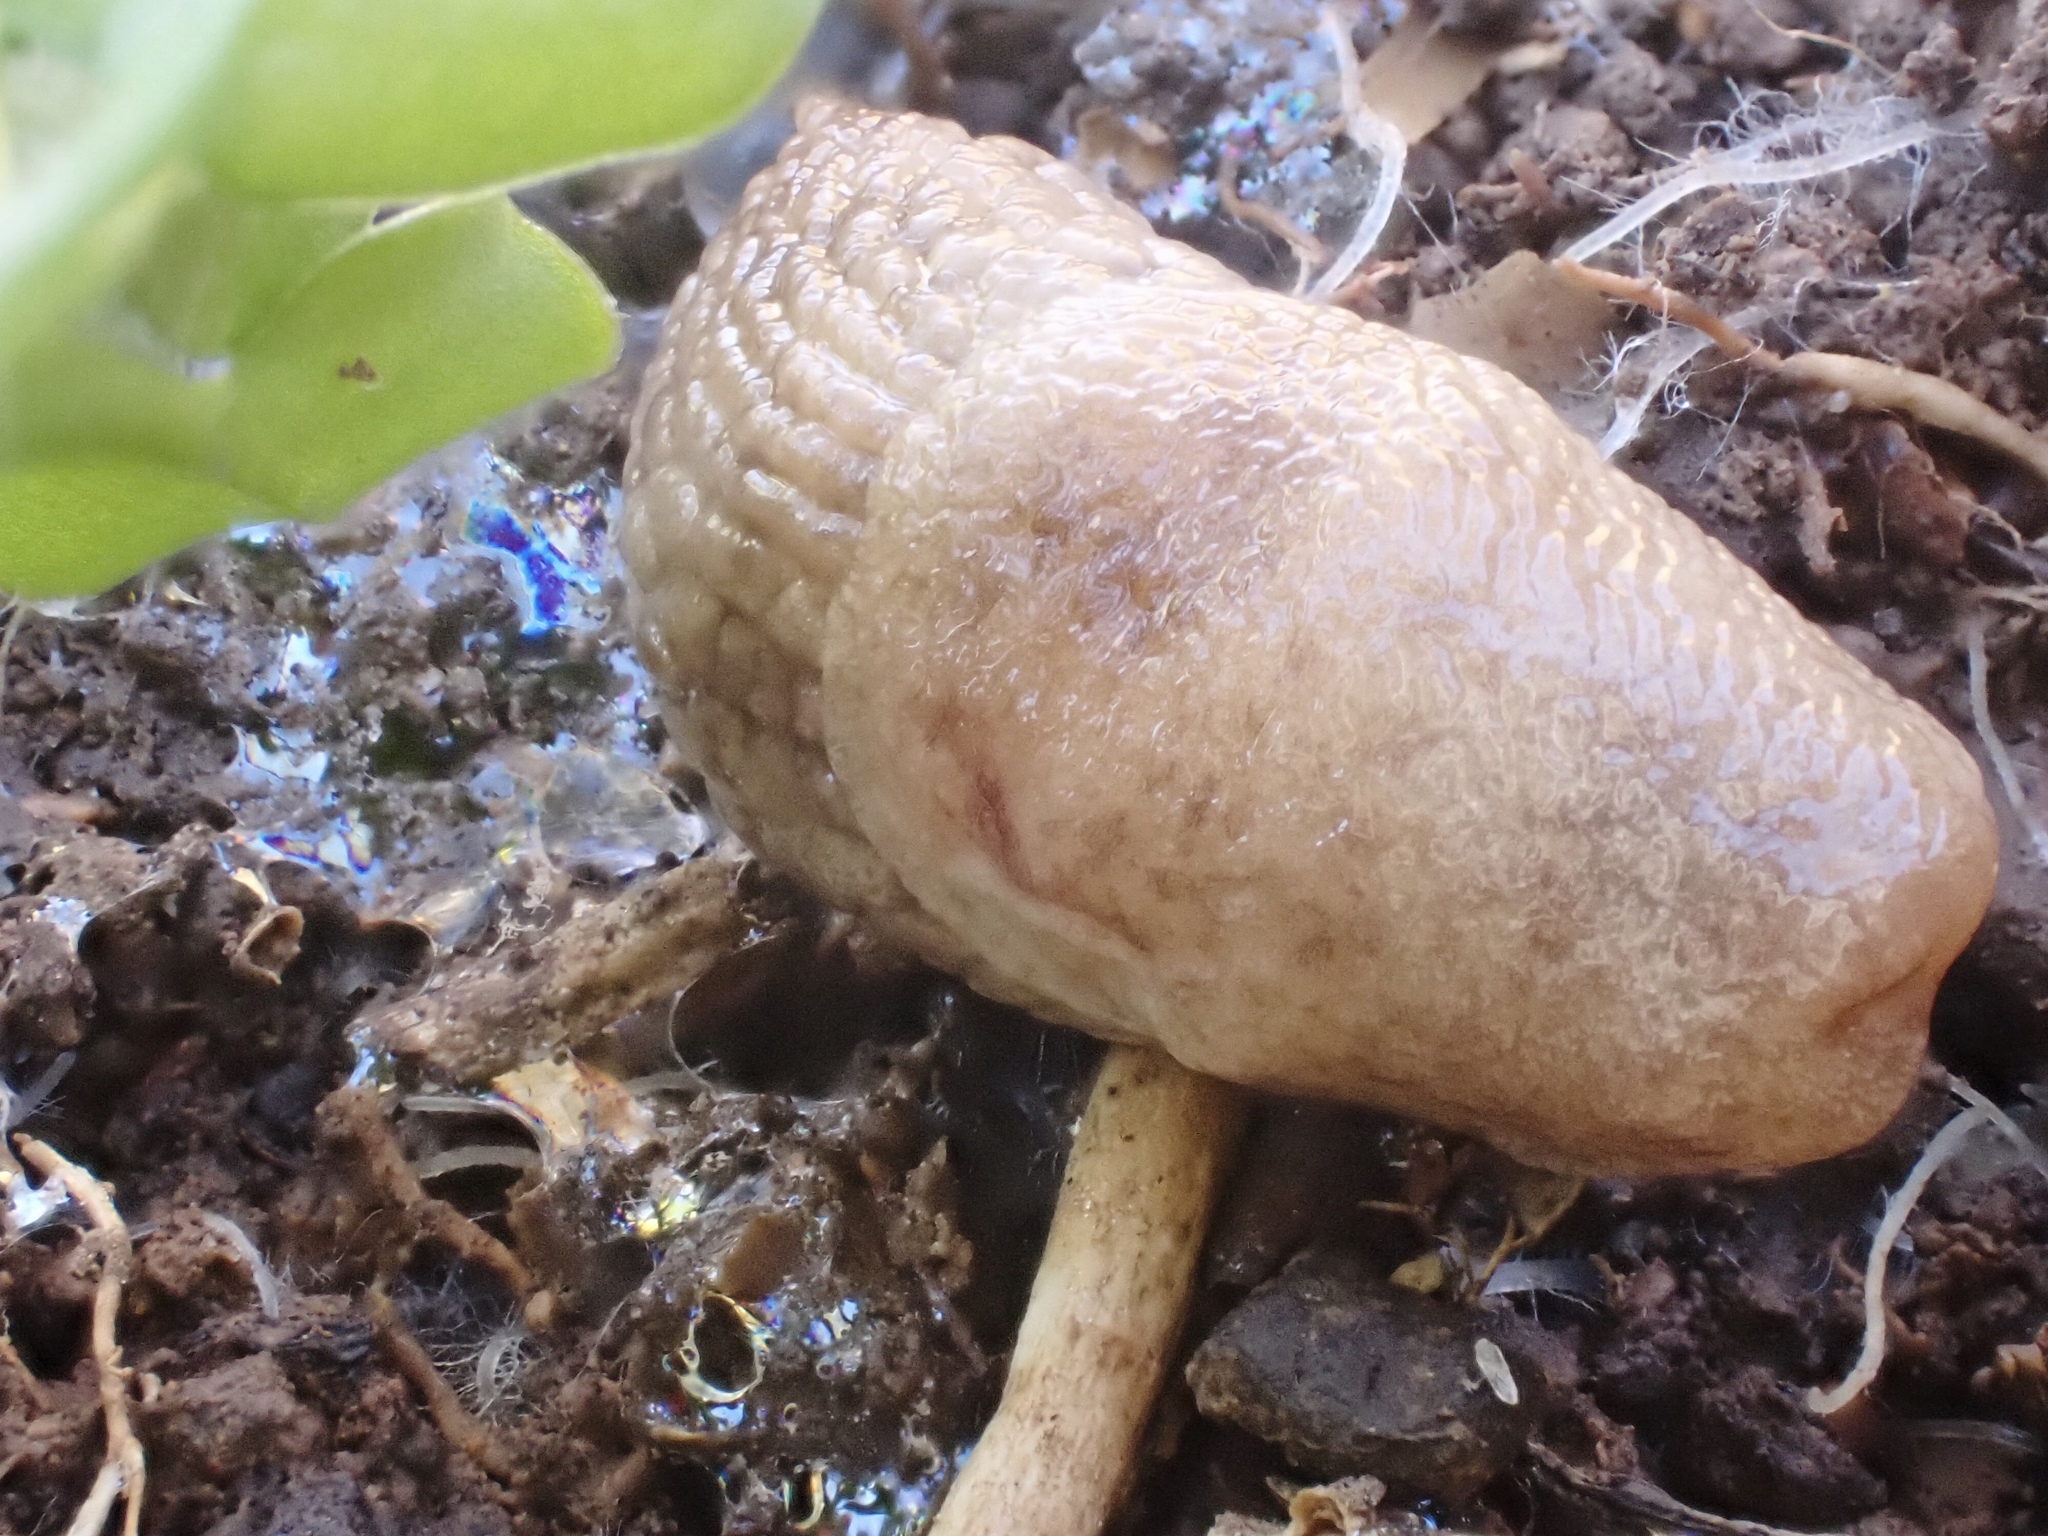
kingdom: Animalia
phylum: Mollusca
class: Gastropoda
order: Stylommatophora
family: Agriolimacidae
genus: Deroceras
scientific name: Deroceras reticulatum
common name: Gray field slug
